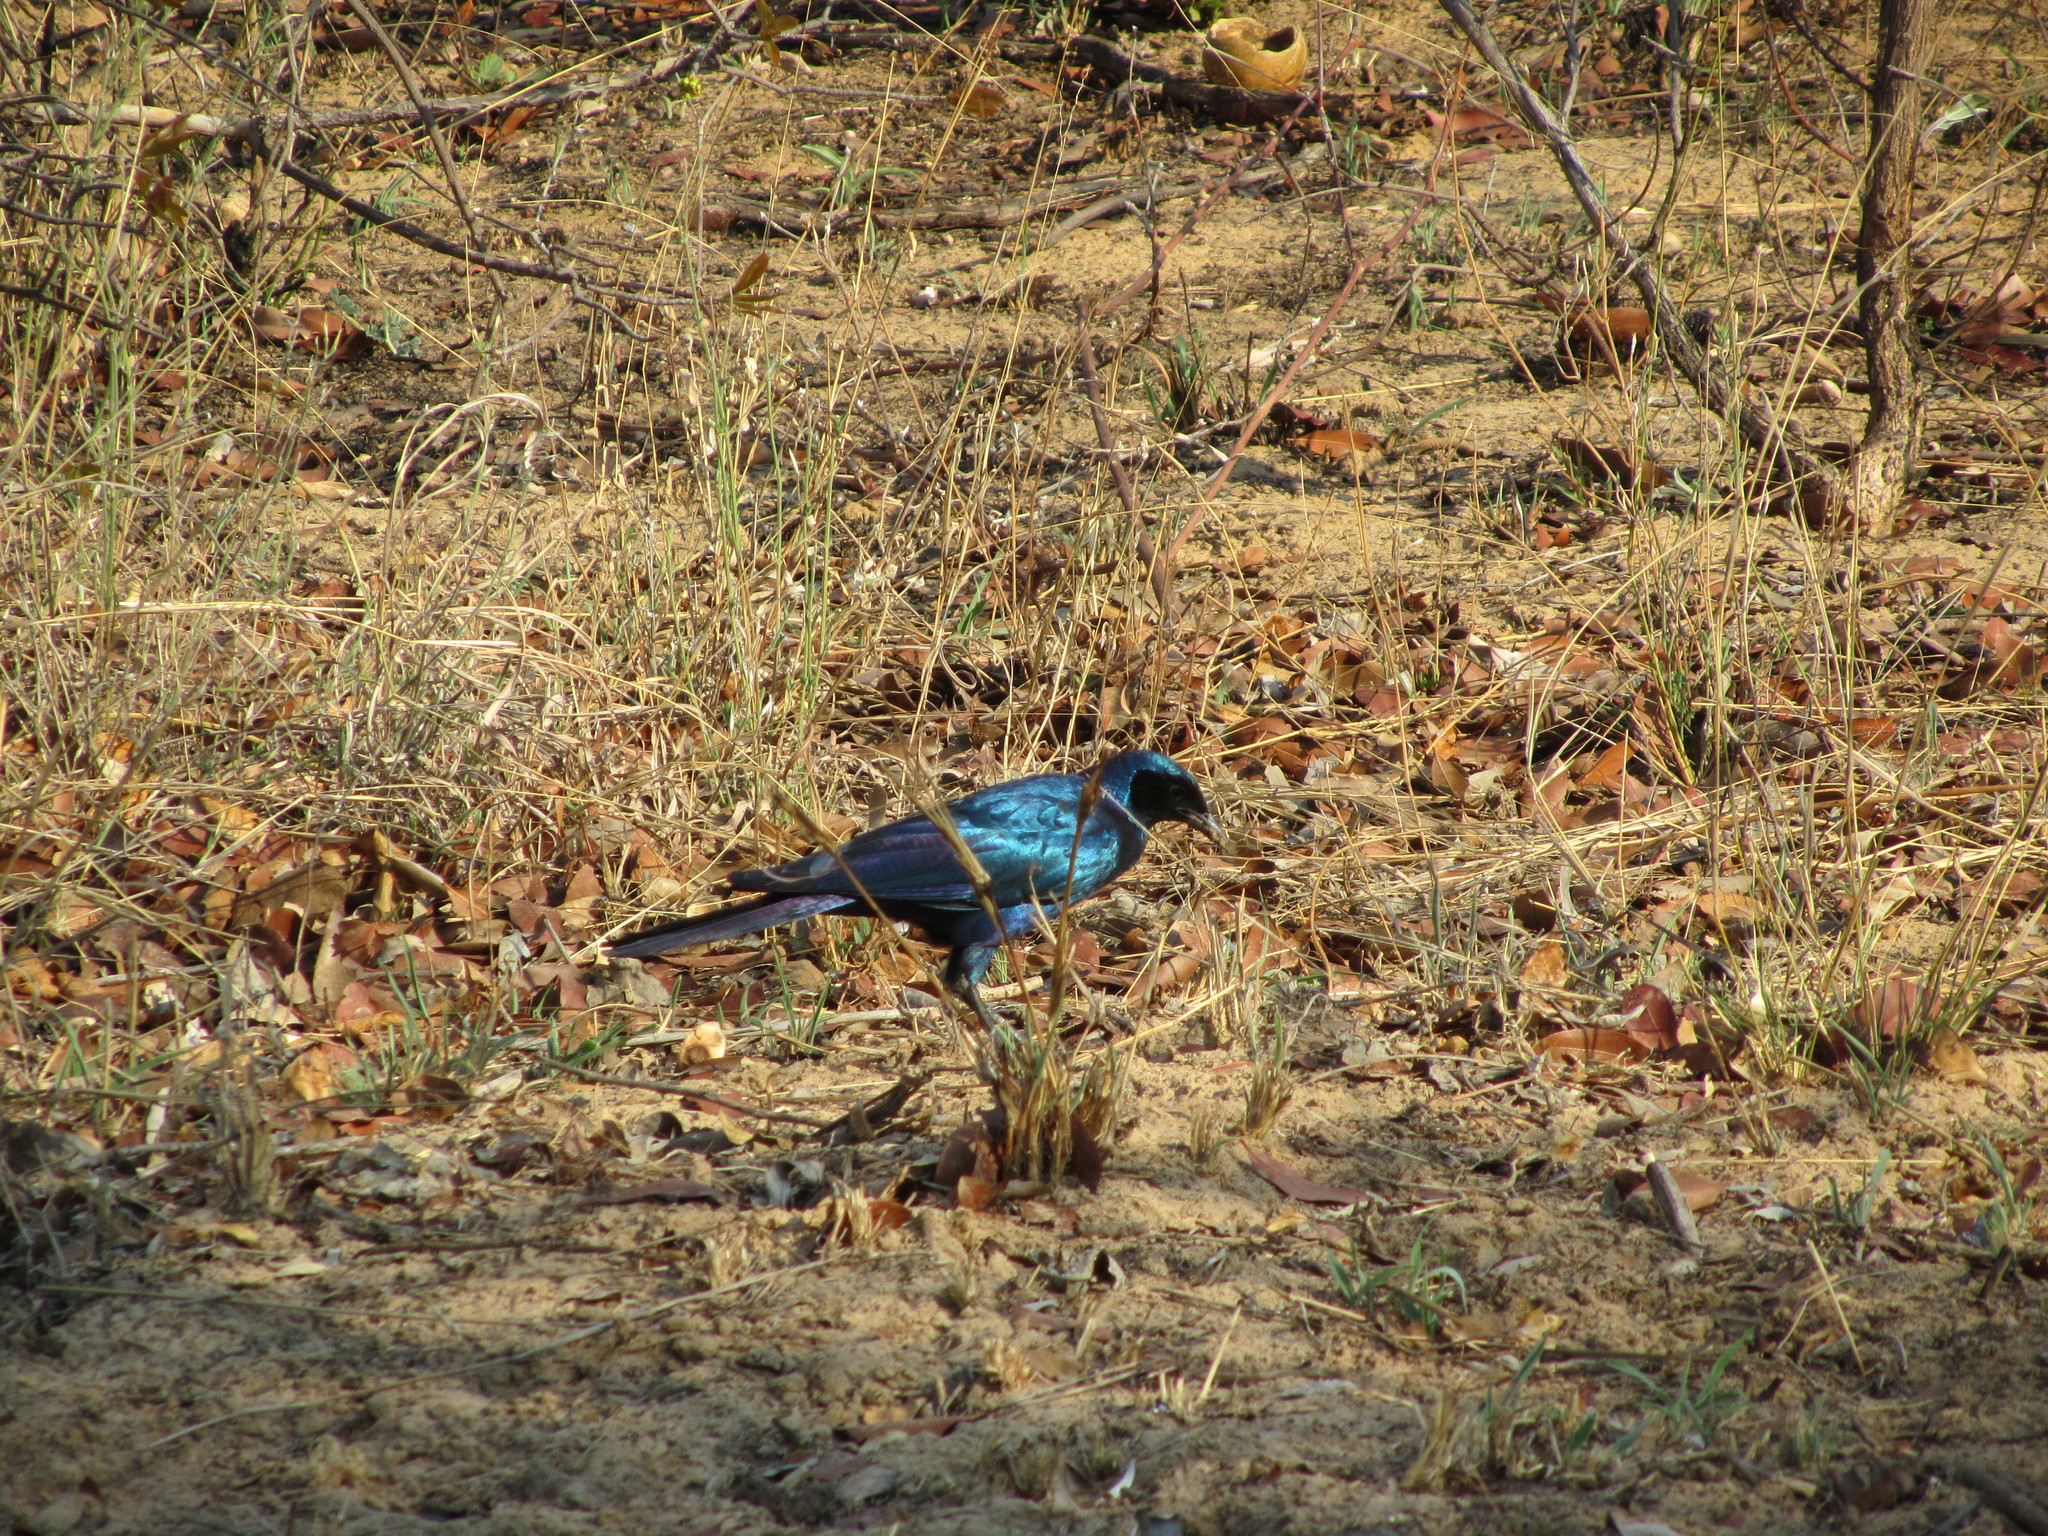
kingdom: Animalia
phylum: Chordata
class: Aves
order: Passeriformes
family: Sturnidae
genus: Lamprotornis
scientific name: Lamprotornis australis
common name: Burchell's starling
